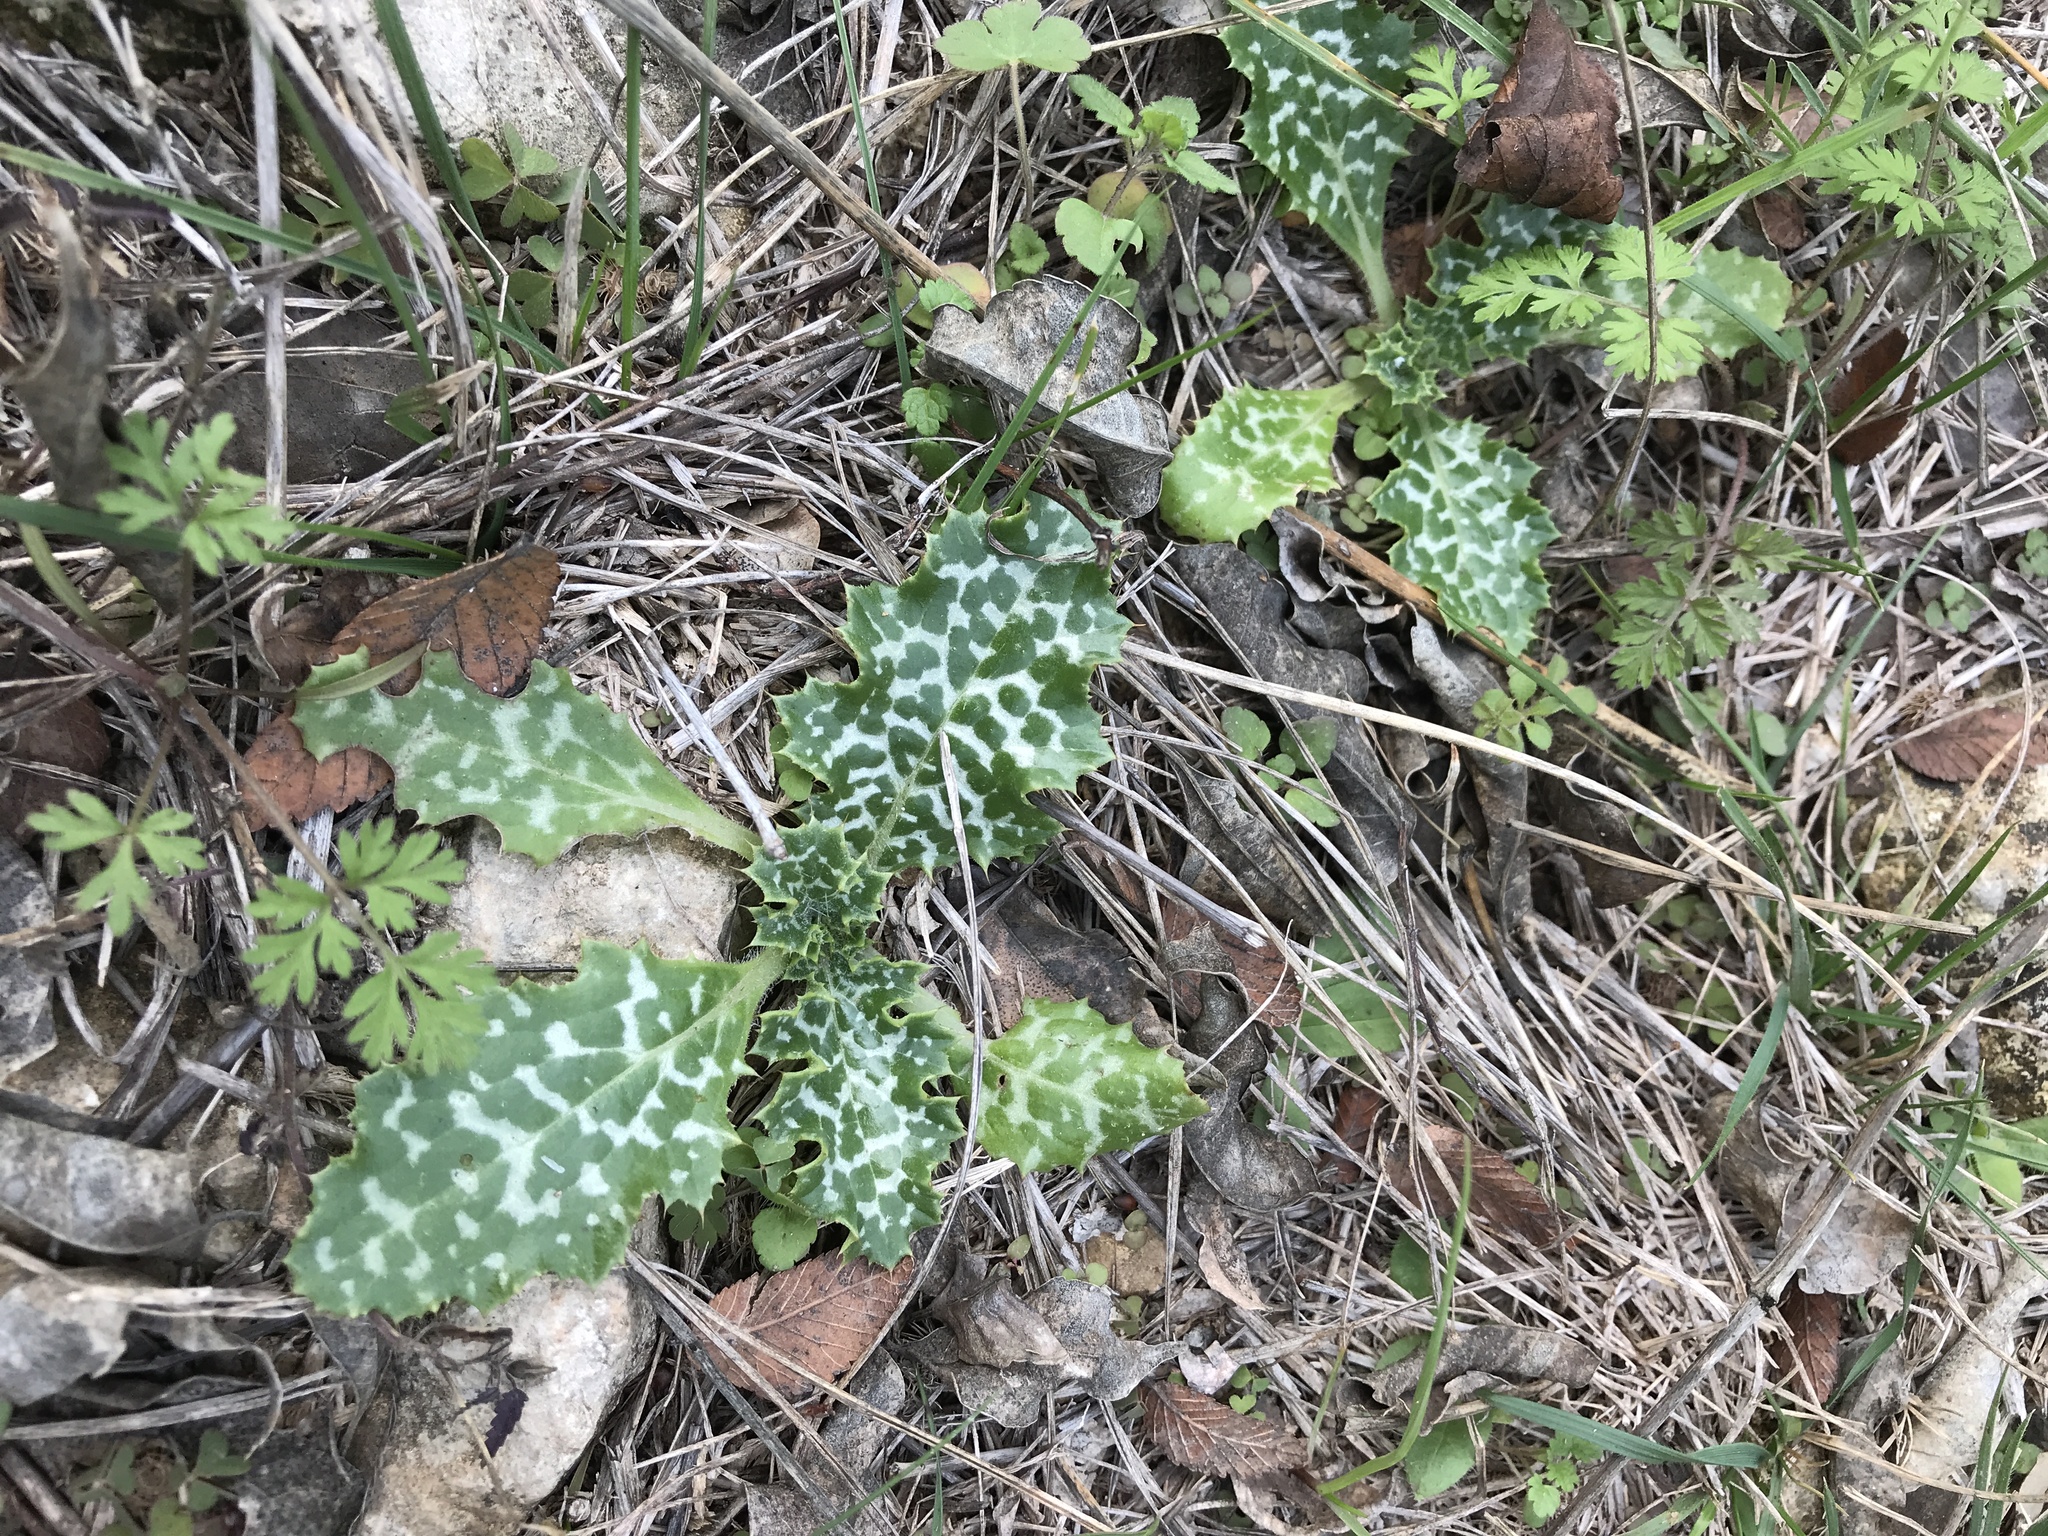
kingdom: Plantae
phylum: Tracheophyta
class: Magnoliopsida
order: Asterales
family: Asteraceae
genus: Silybum
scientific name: Silybum marianum
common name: Milk thistle
